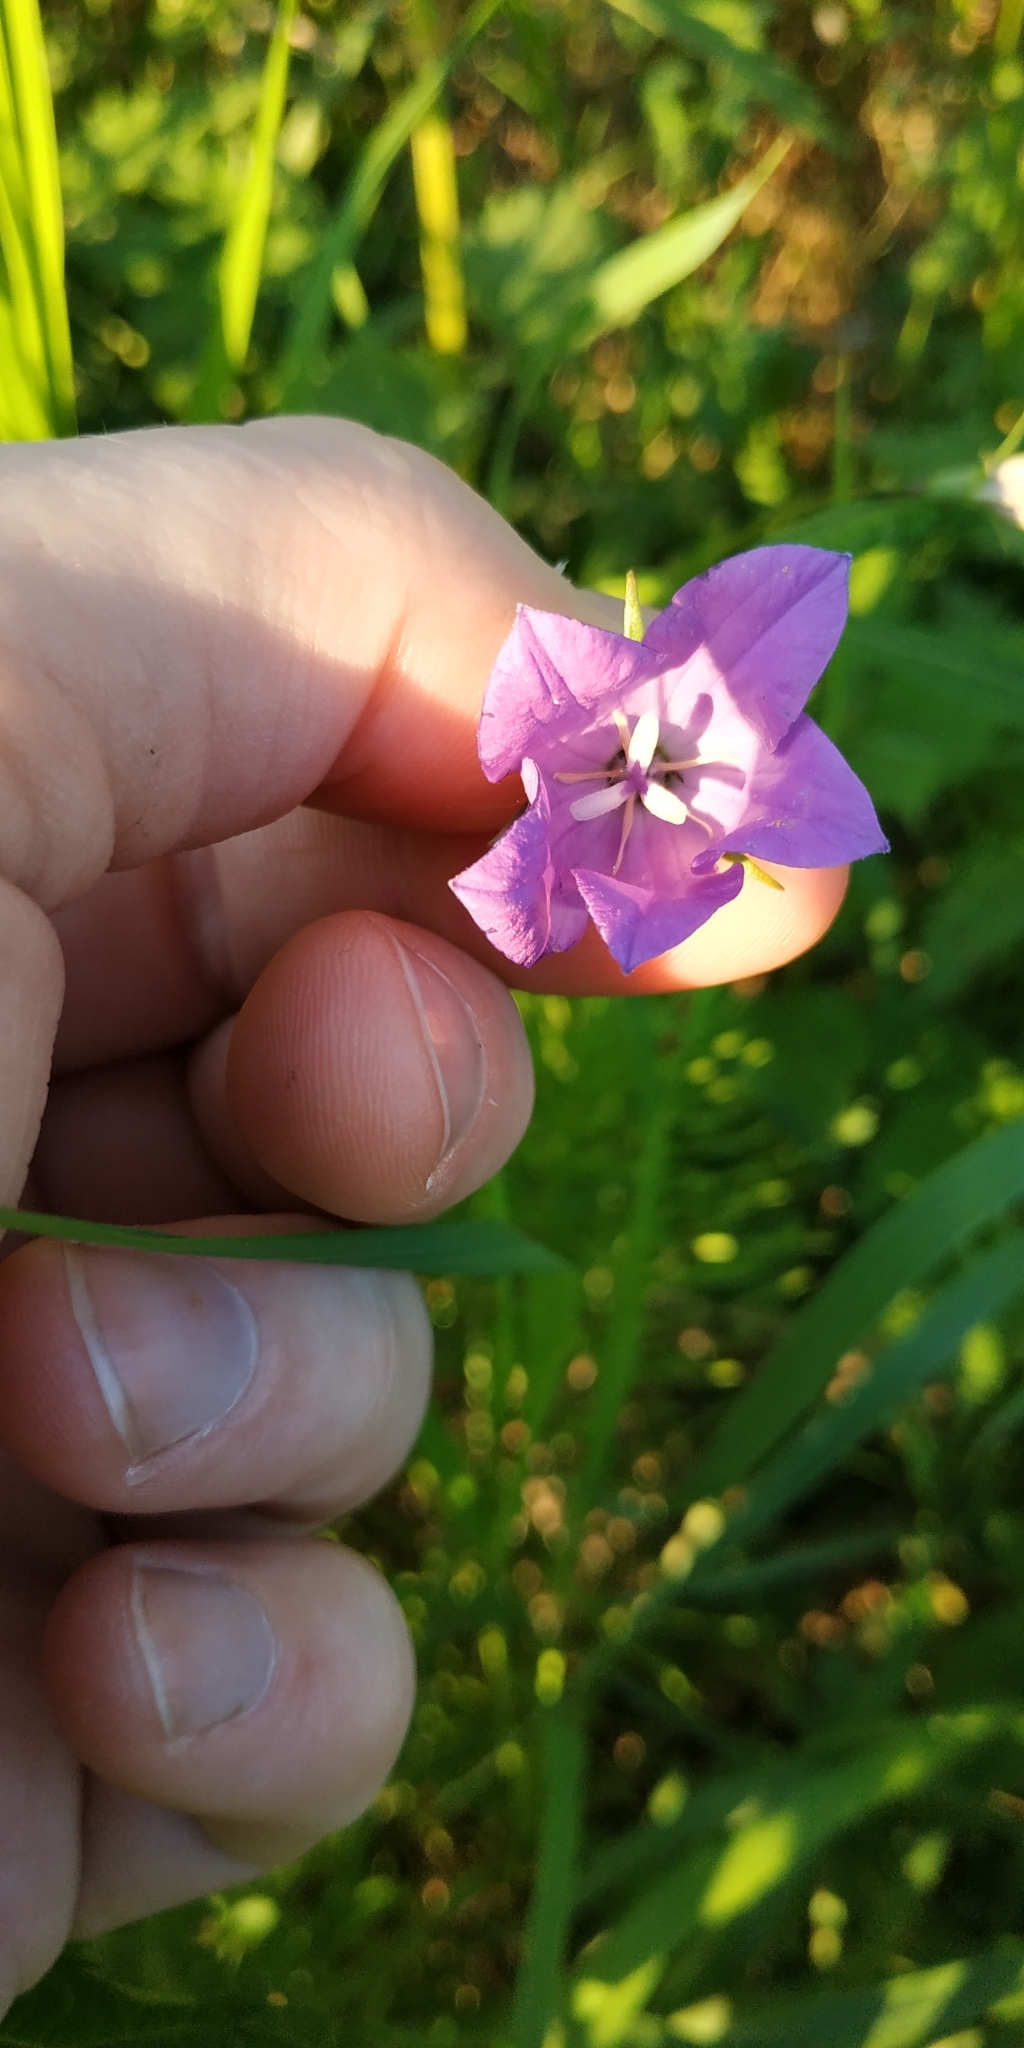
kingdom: Plantae
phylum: Tracheophyta
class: Magnoliopsida
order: Asterales
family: Campanulaceae
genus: Campanula
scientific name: Campanula stevenii
